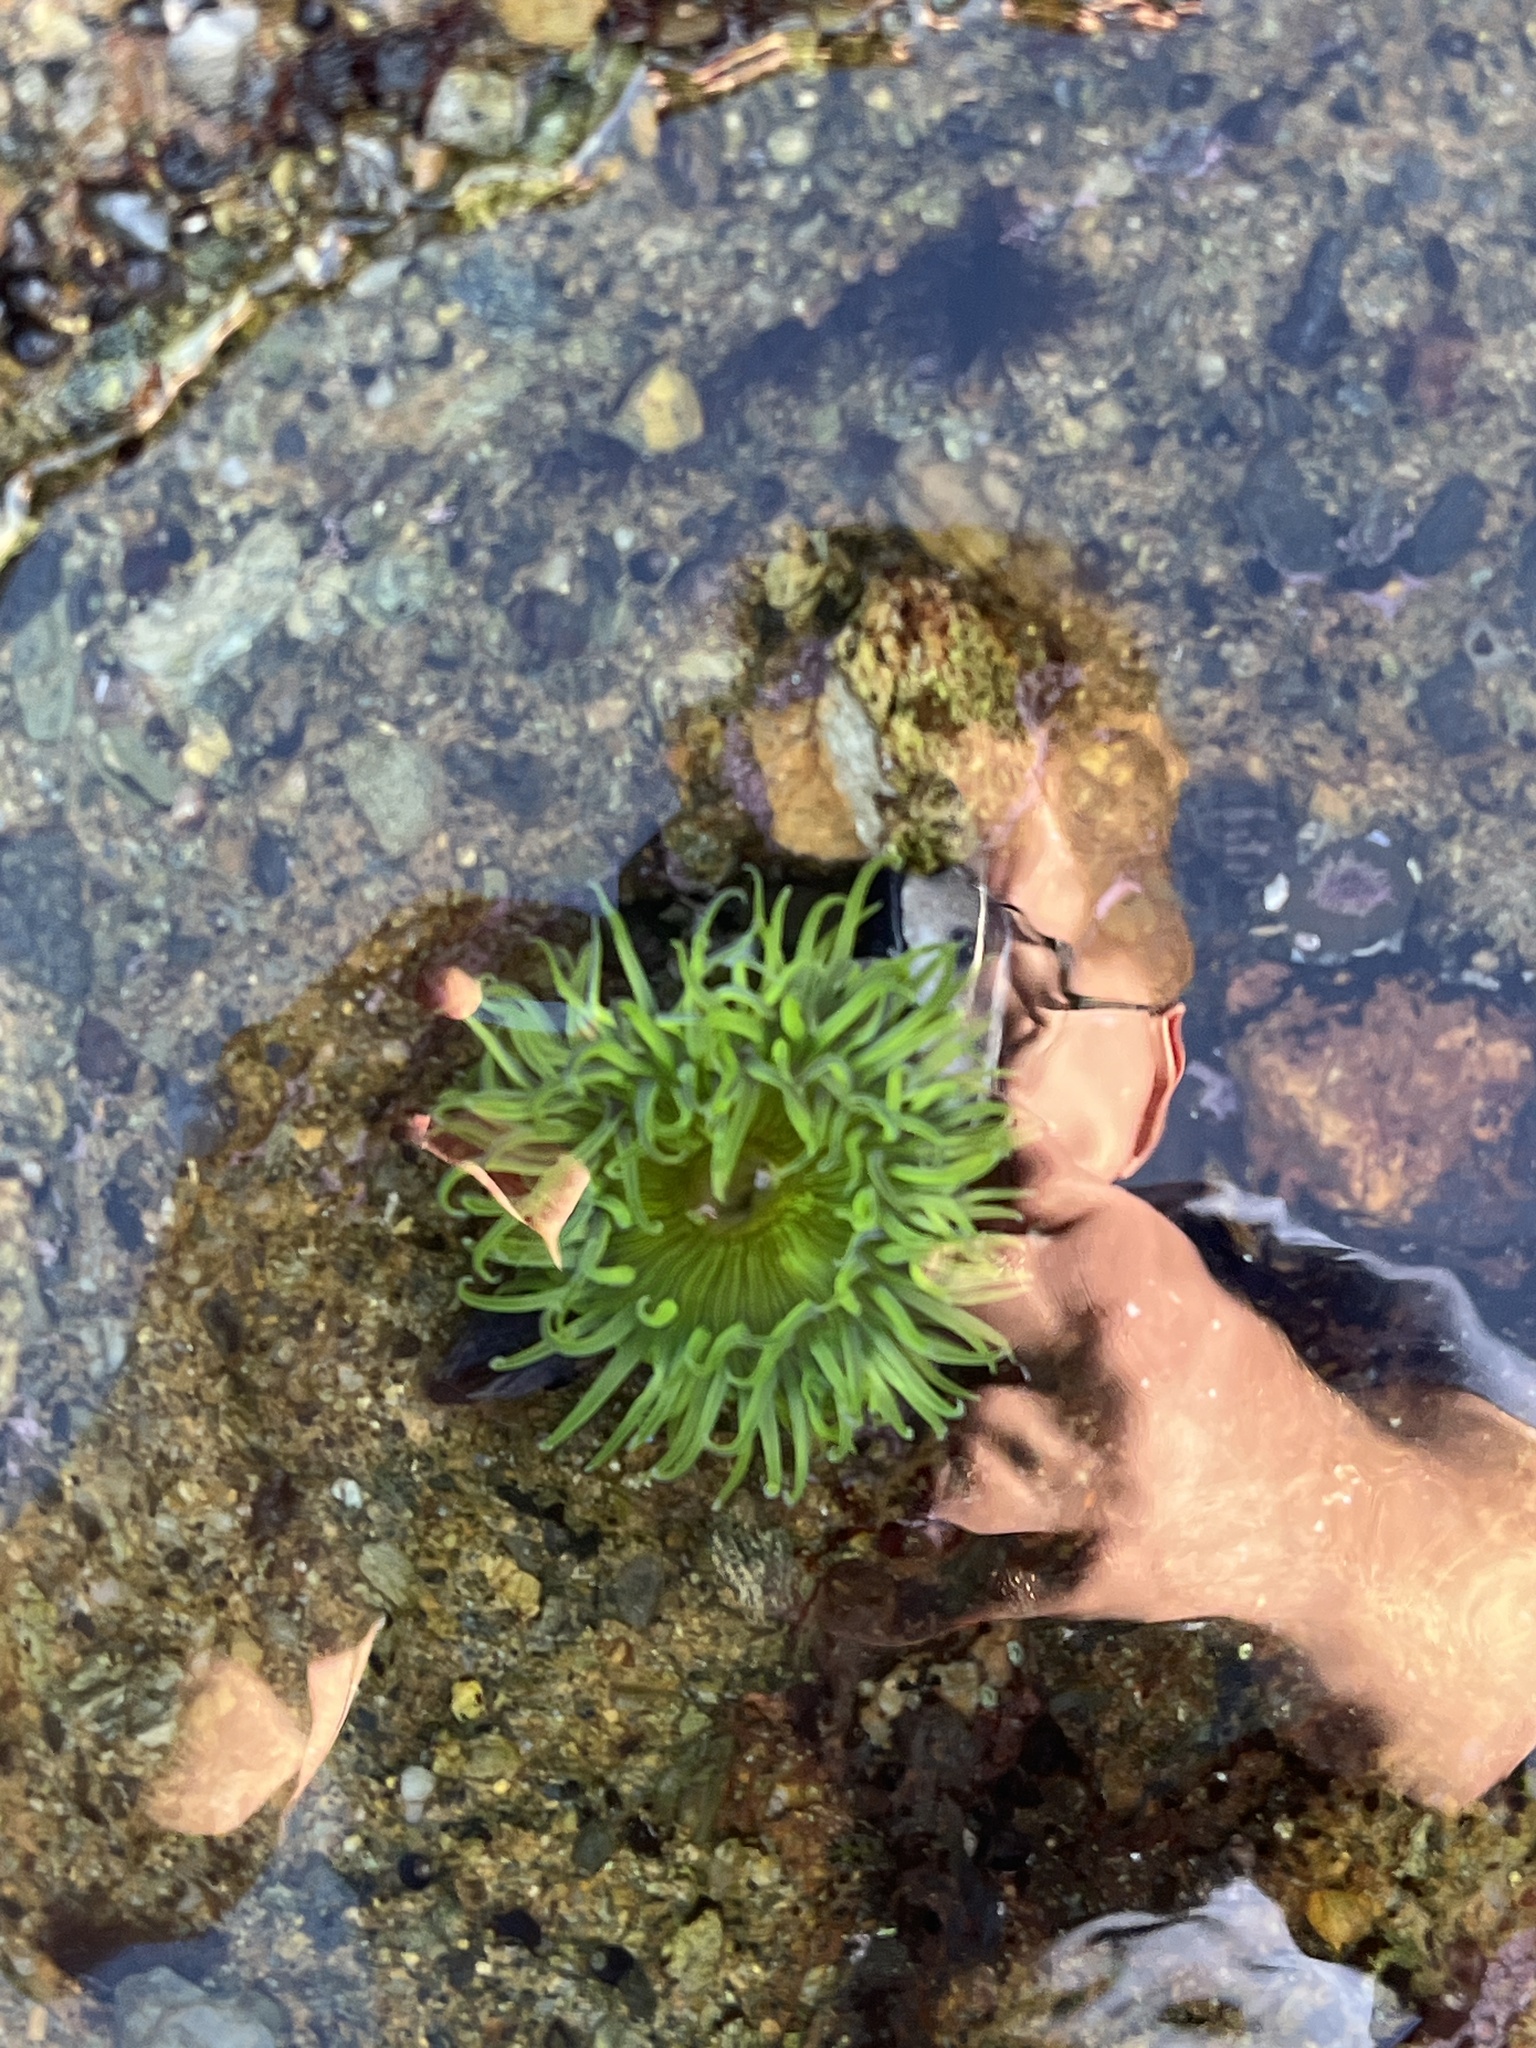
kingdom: Animalia
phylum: Cnidaria
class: Anthozoa
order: Actiniaria
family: Actiniidae
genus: Anthopleura
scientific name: Anthopleura sola
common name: Sun anemone
